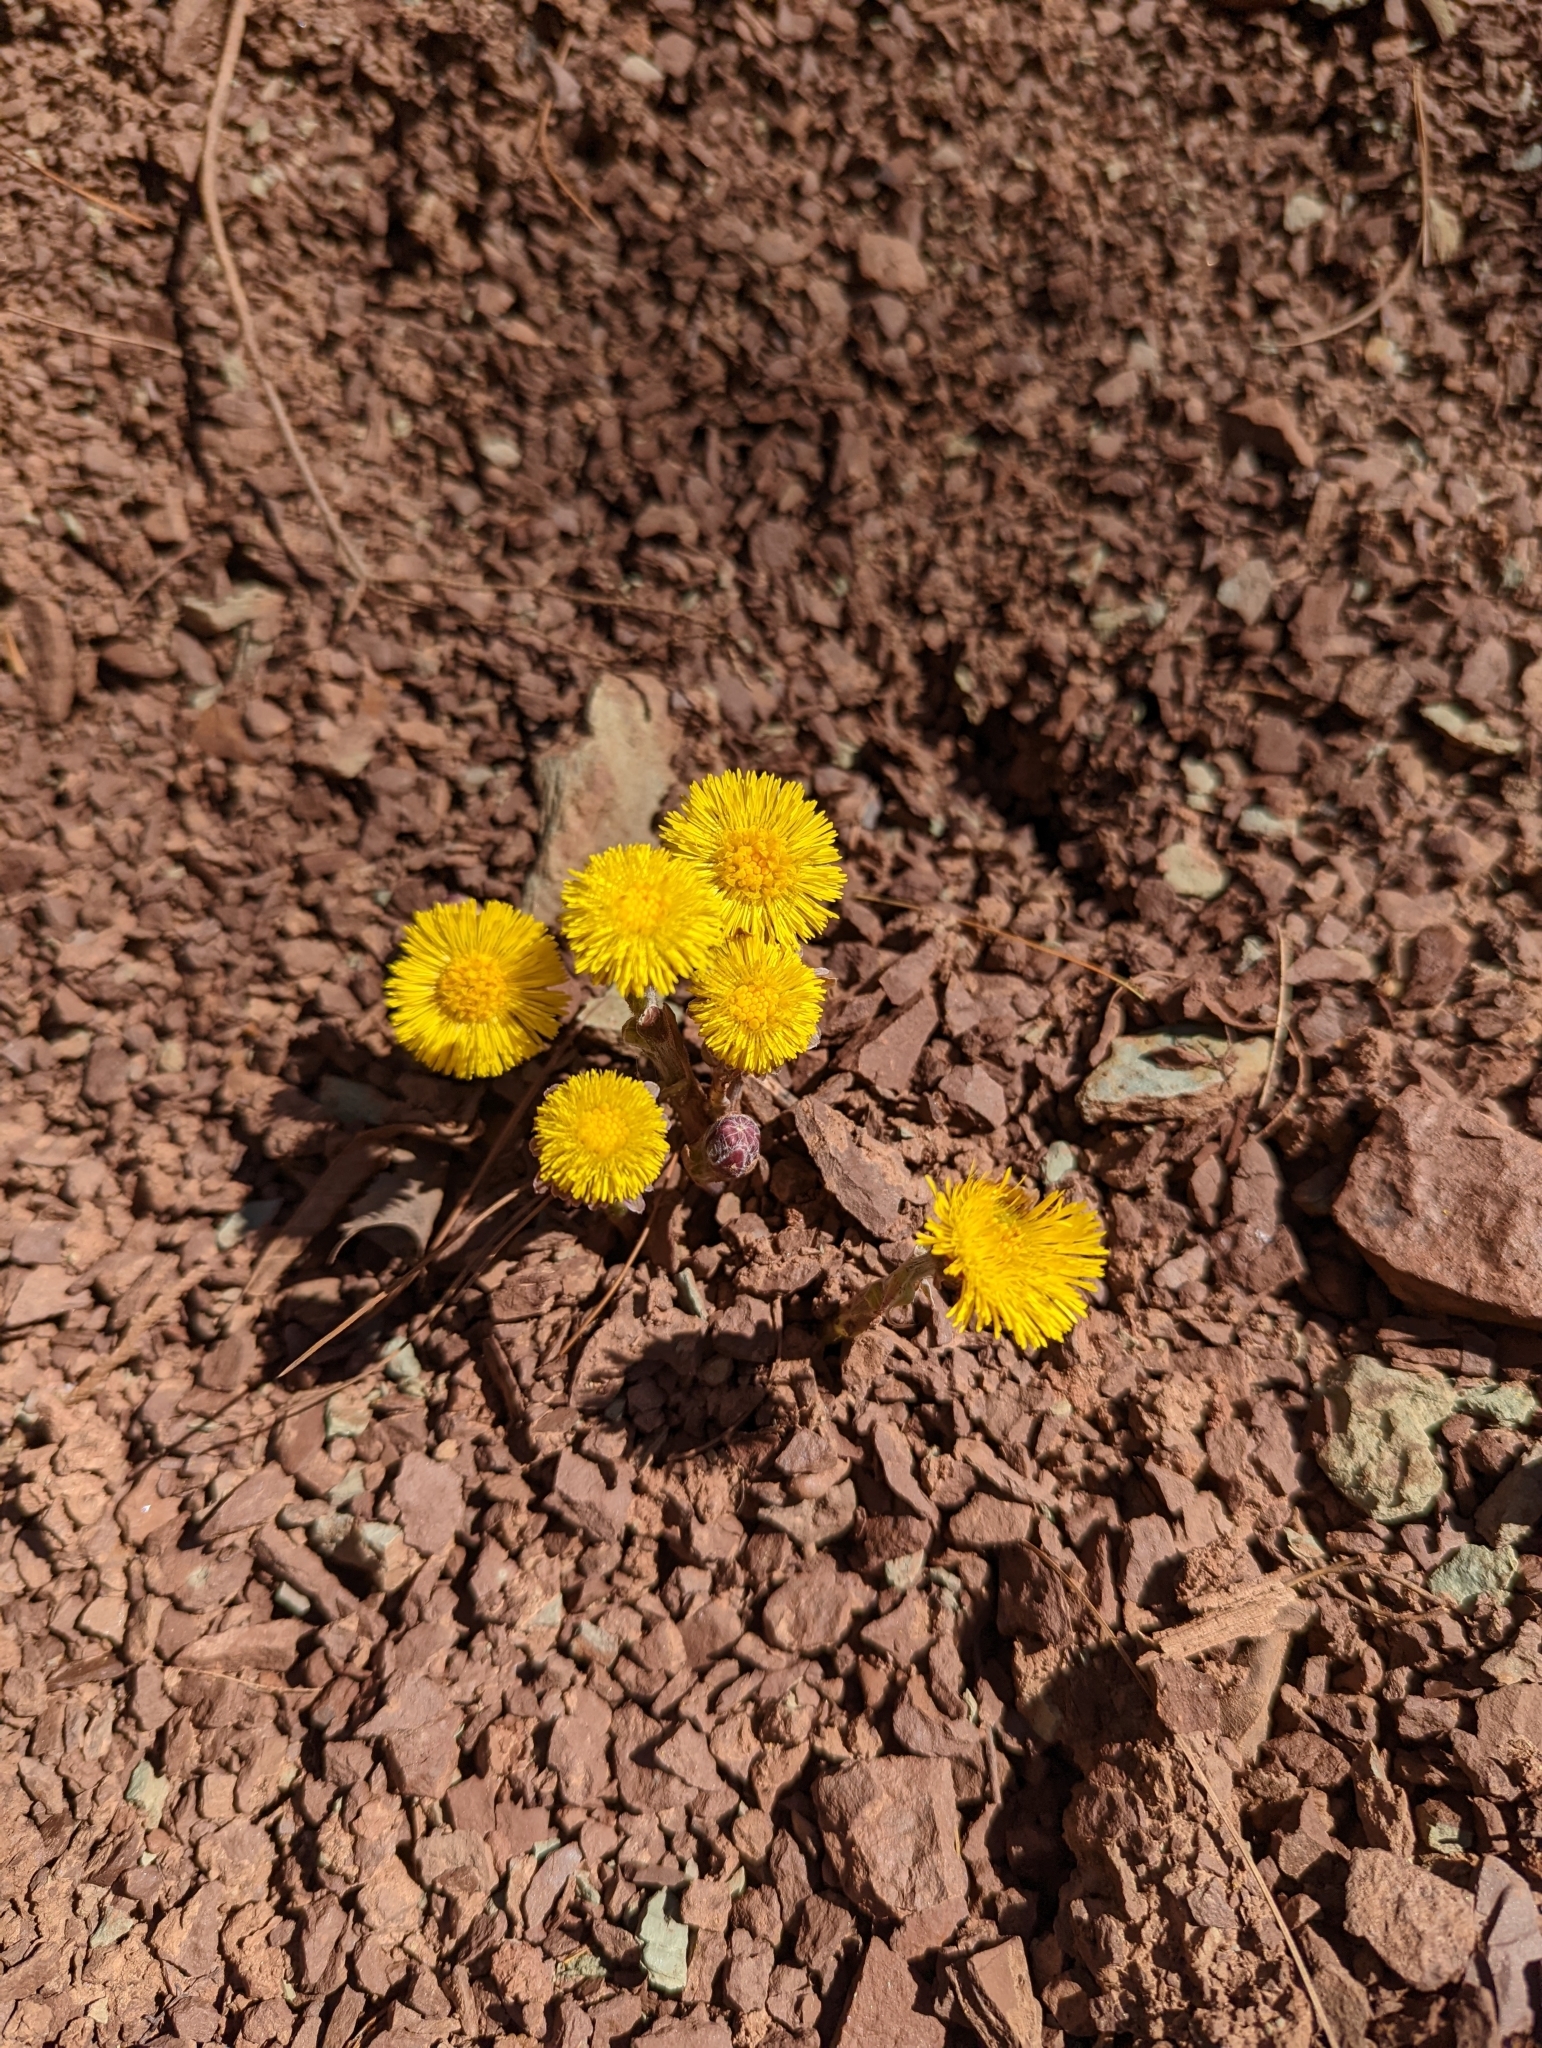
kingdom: Plantae
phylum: Tracheophyta
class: Magnoliopsida
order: Asterales
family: Asteraceae
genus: Tussilago
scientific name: Tussilago farfara
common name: Coltsfoot
